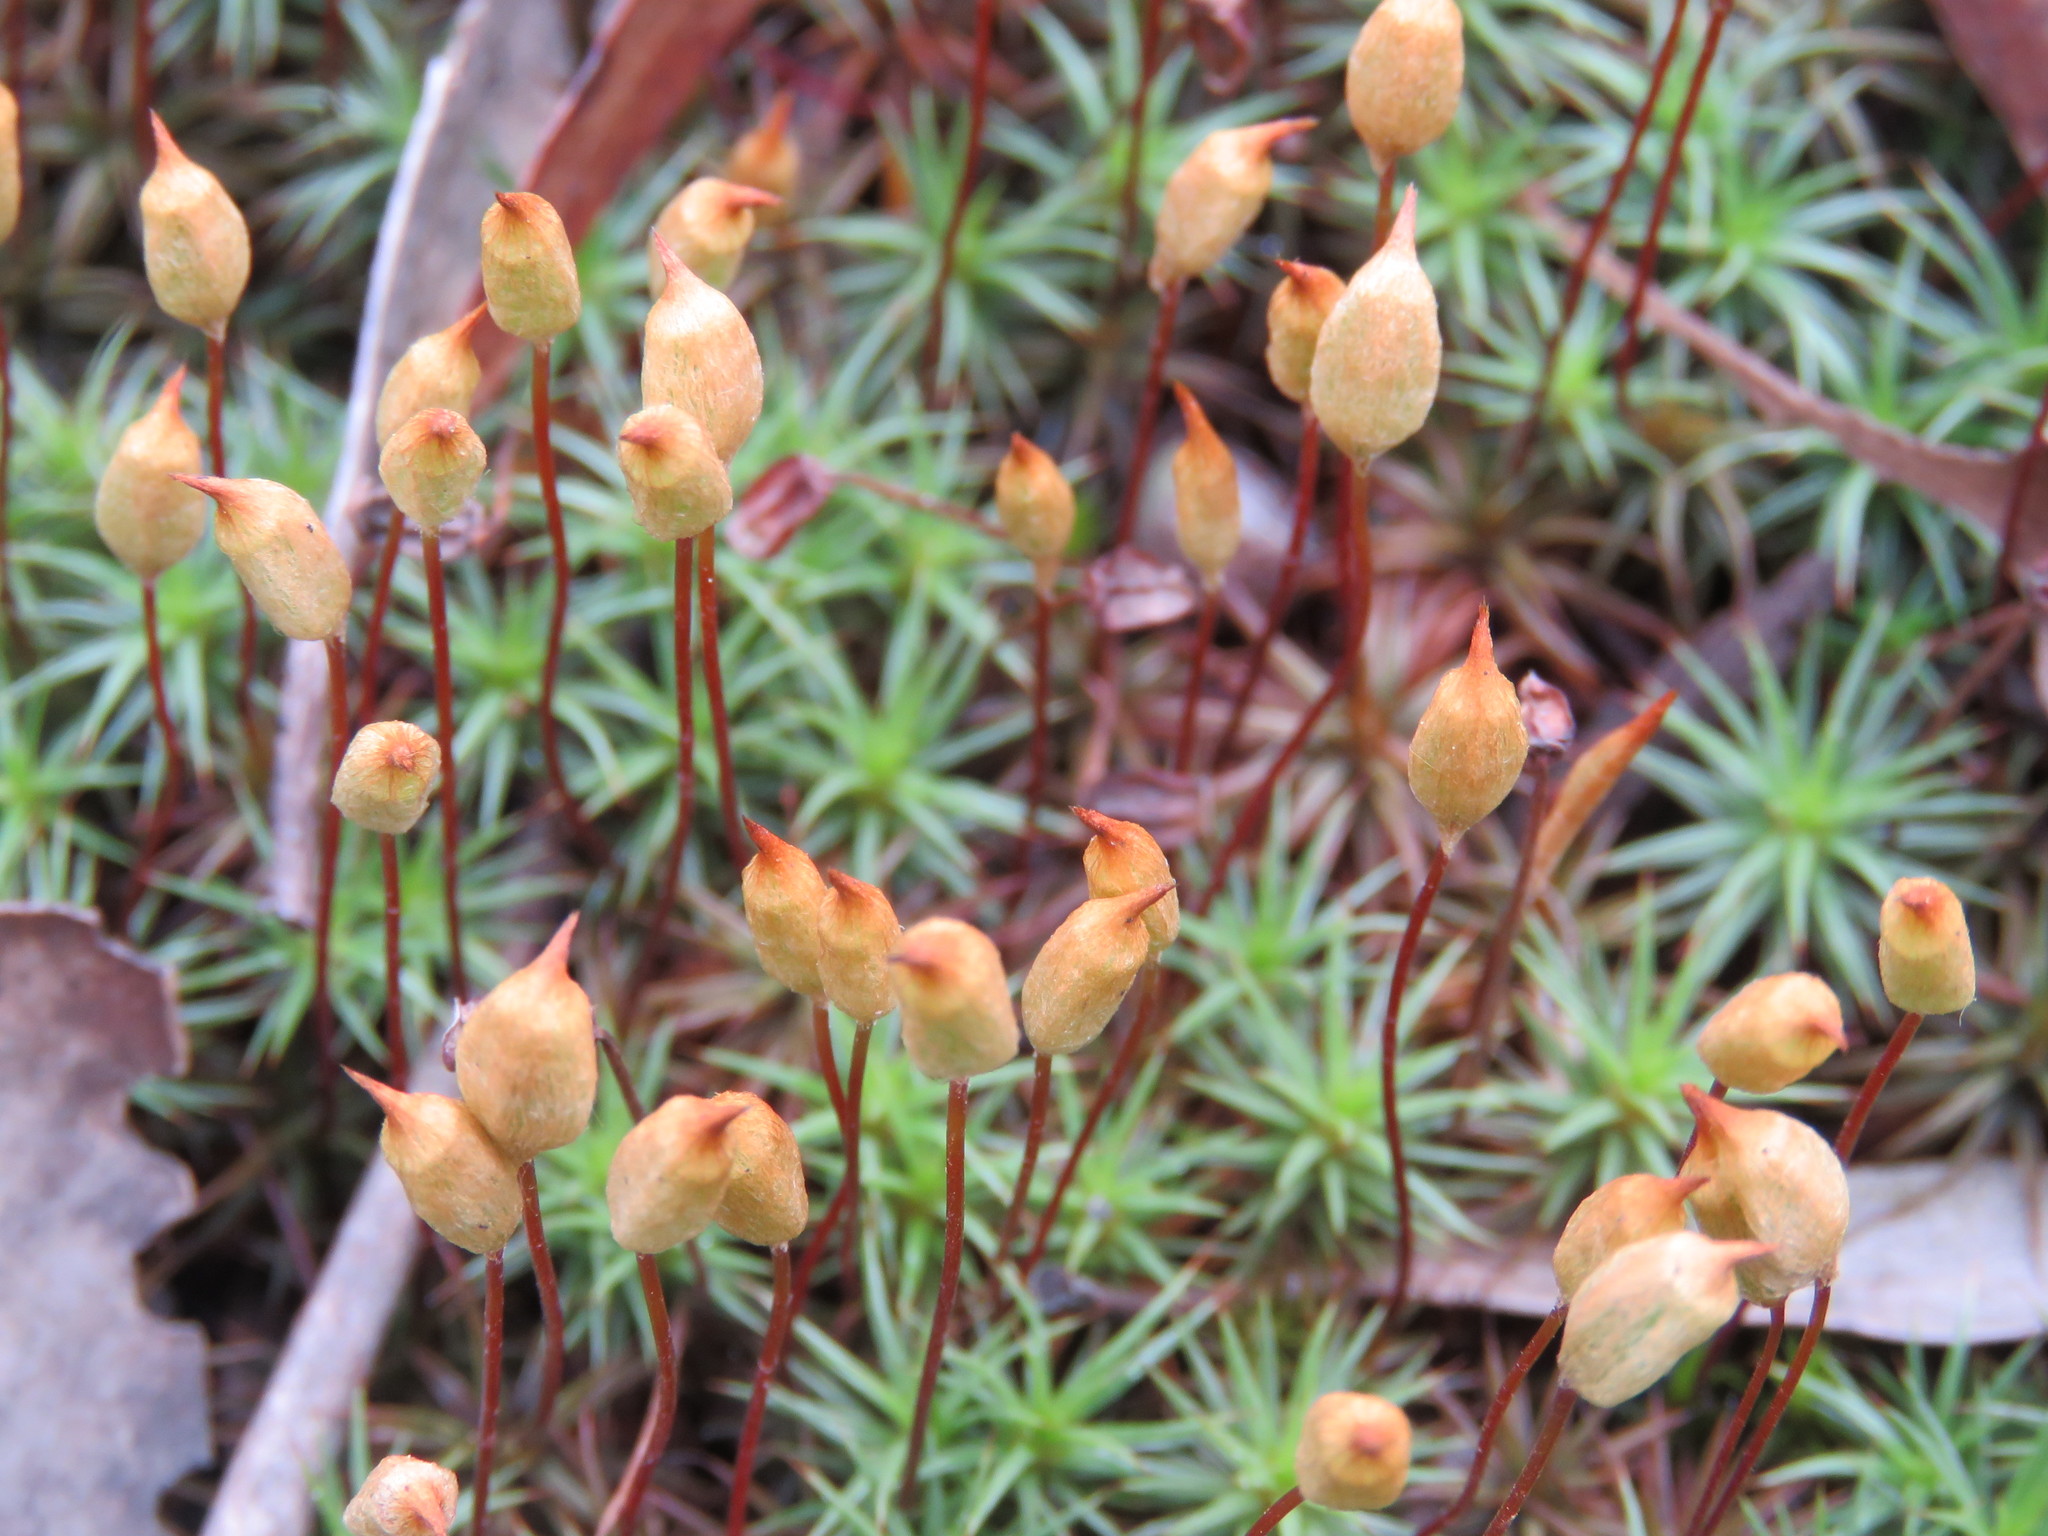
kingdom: Plantae
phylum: Bryophyta
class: Polytrichopsida
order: Polytrichales
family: Polytrichaceae
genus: Polytrichum
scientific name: Polytrichum juniperinum
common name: Juniper haircap moss
